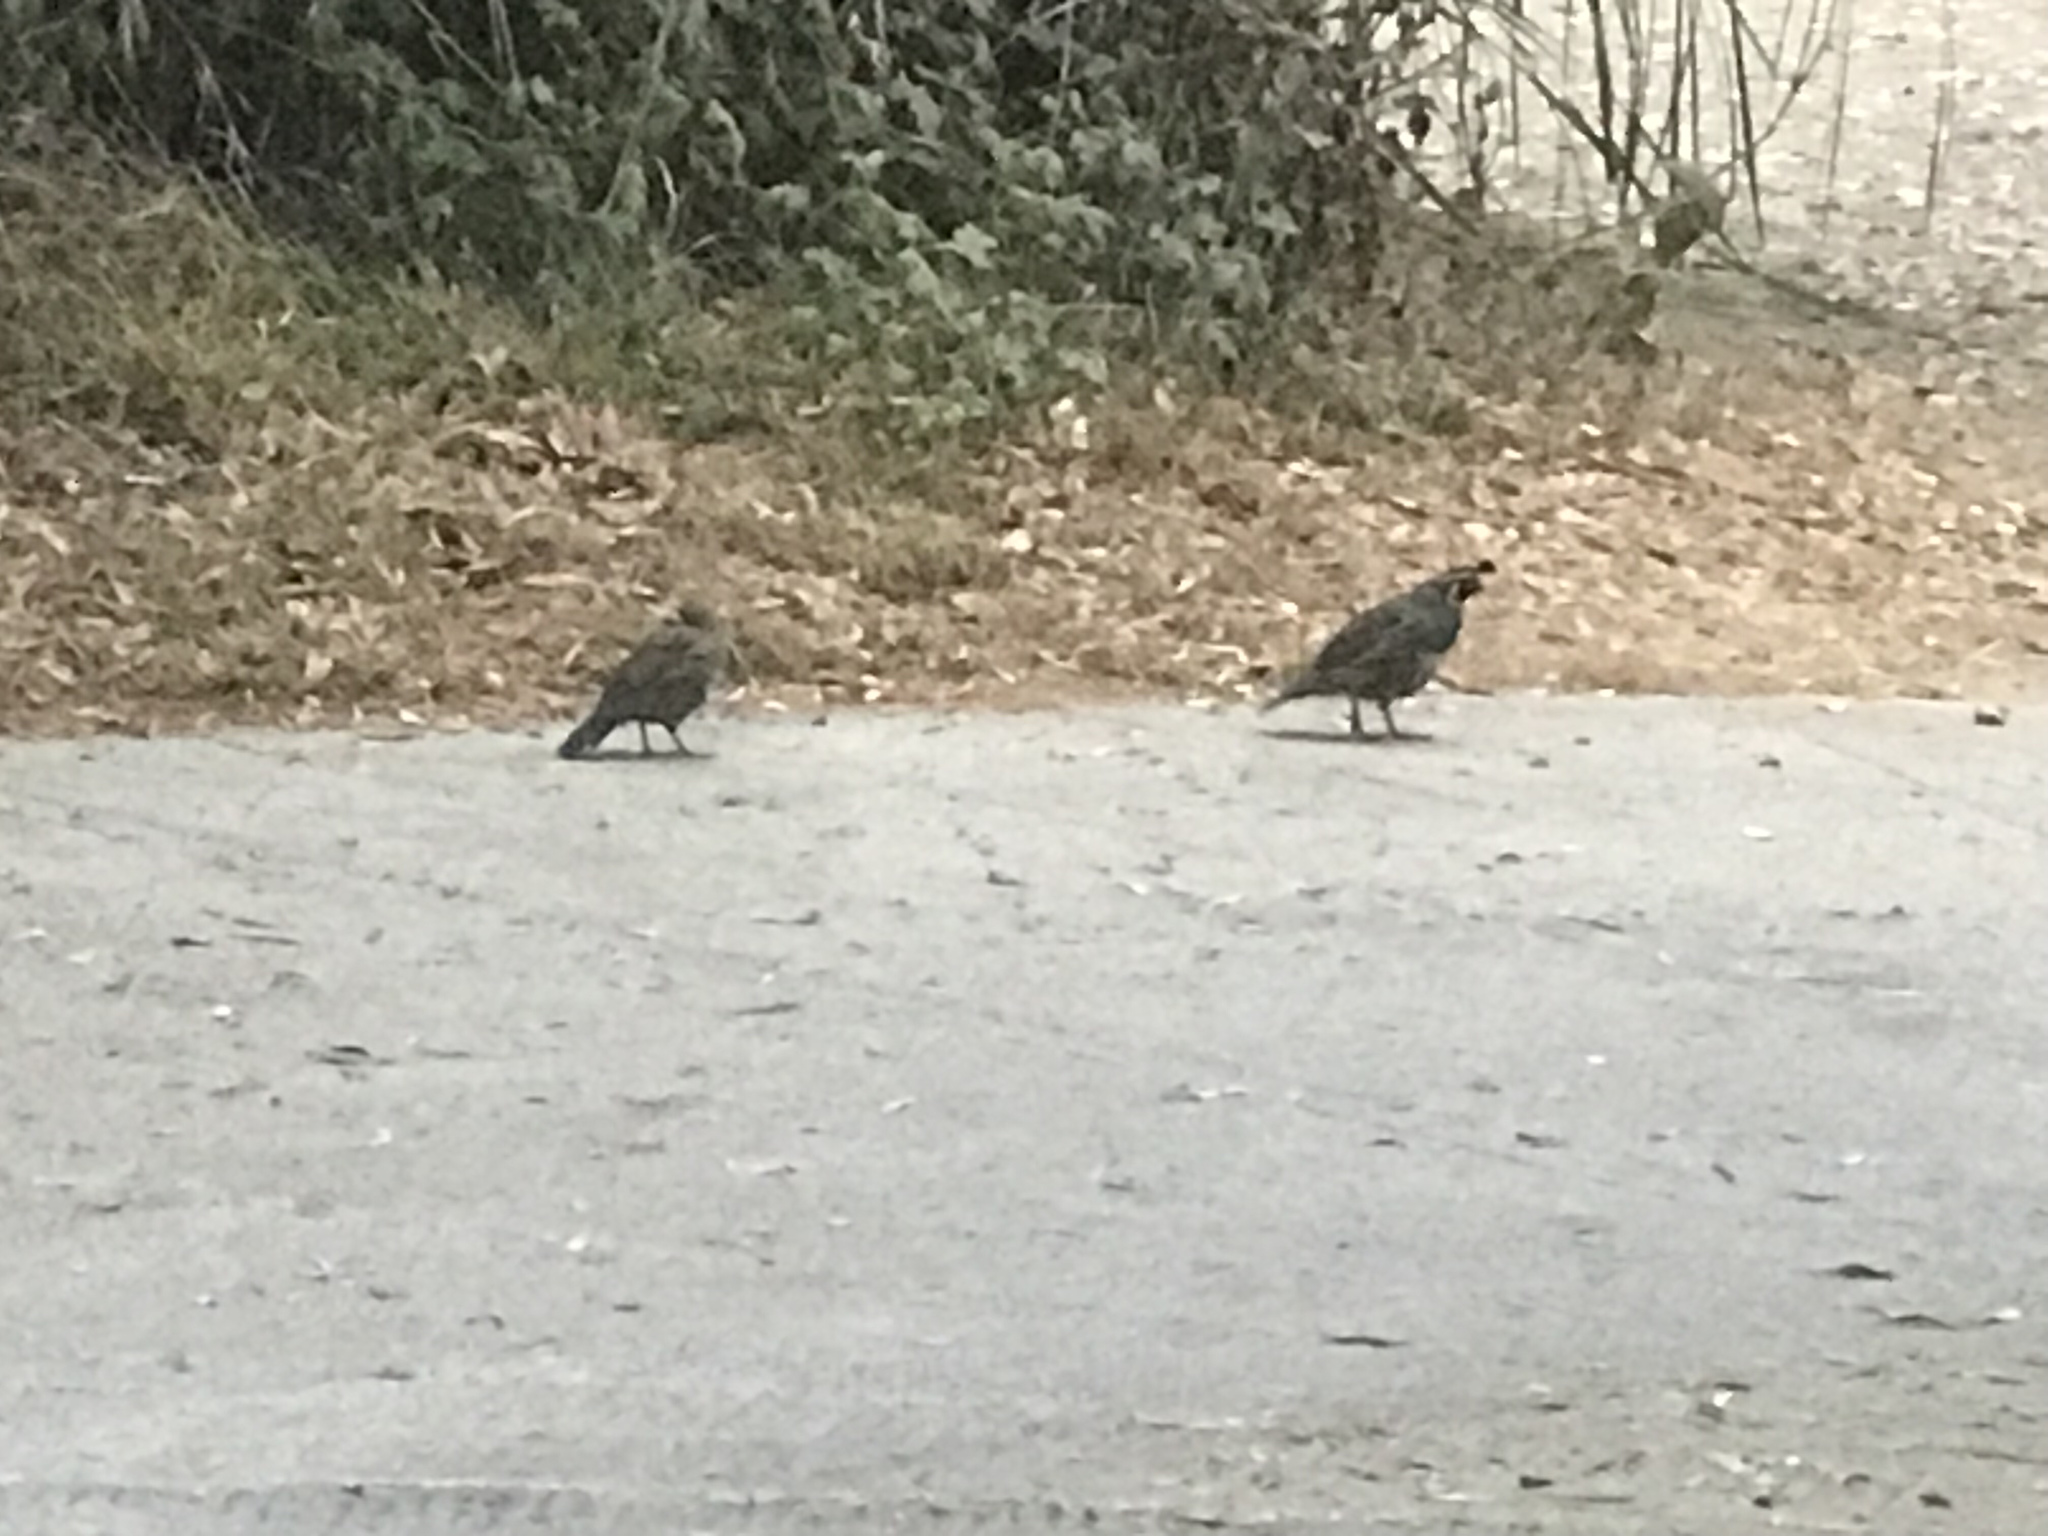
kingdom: Animalia
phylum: Chordata
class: Aves
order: Galliformes
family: Odontophoridae
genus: Callipepla
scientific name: Callipepla californica
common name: California quail
